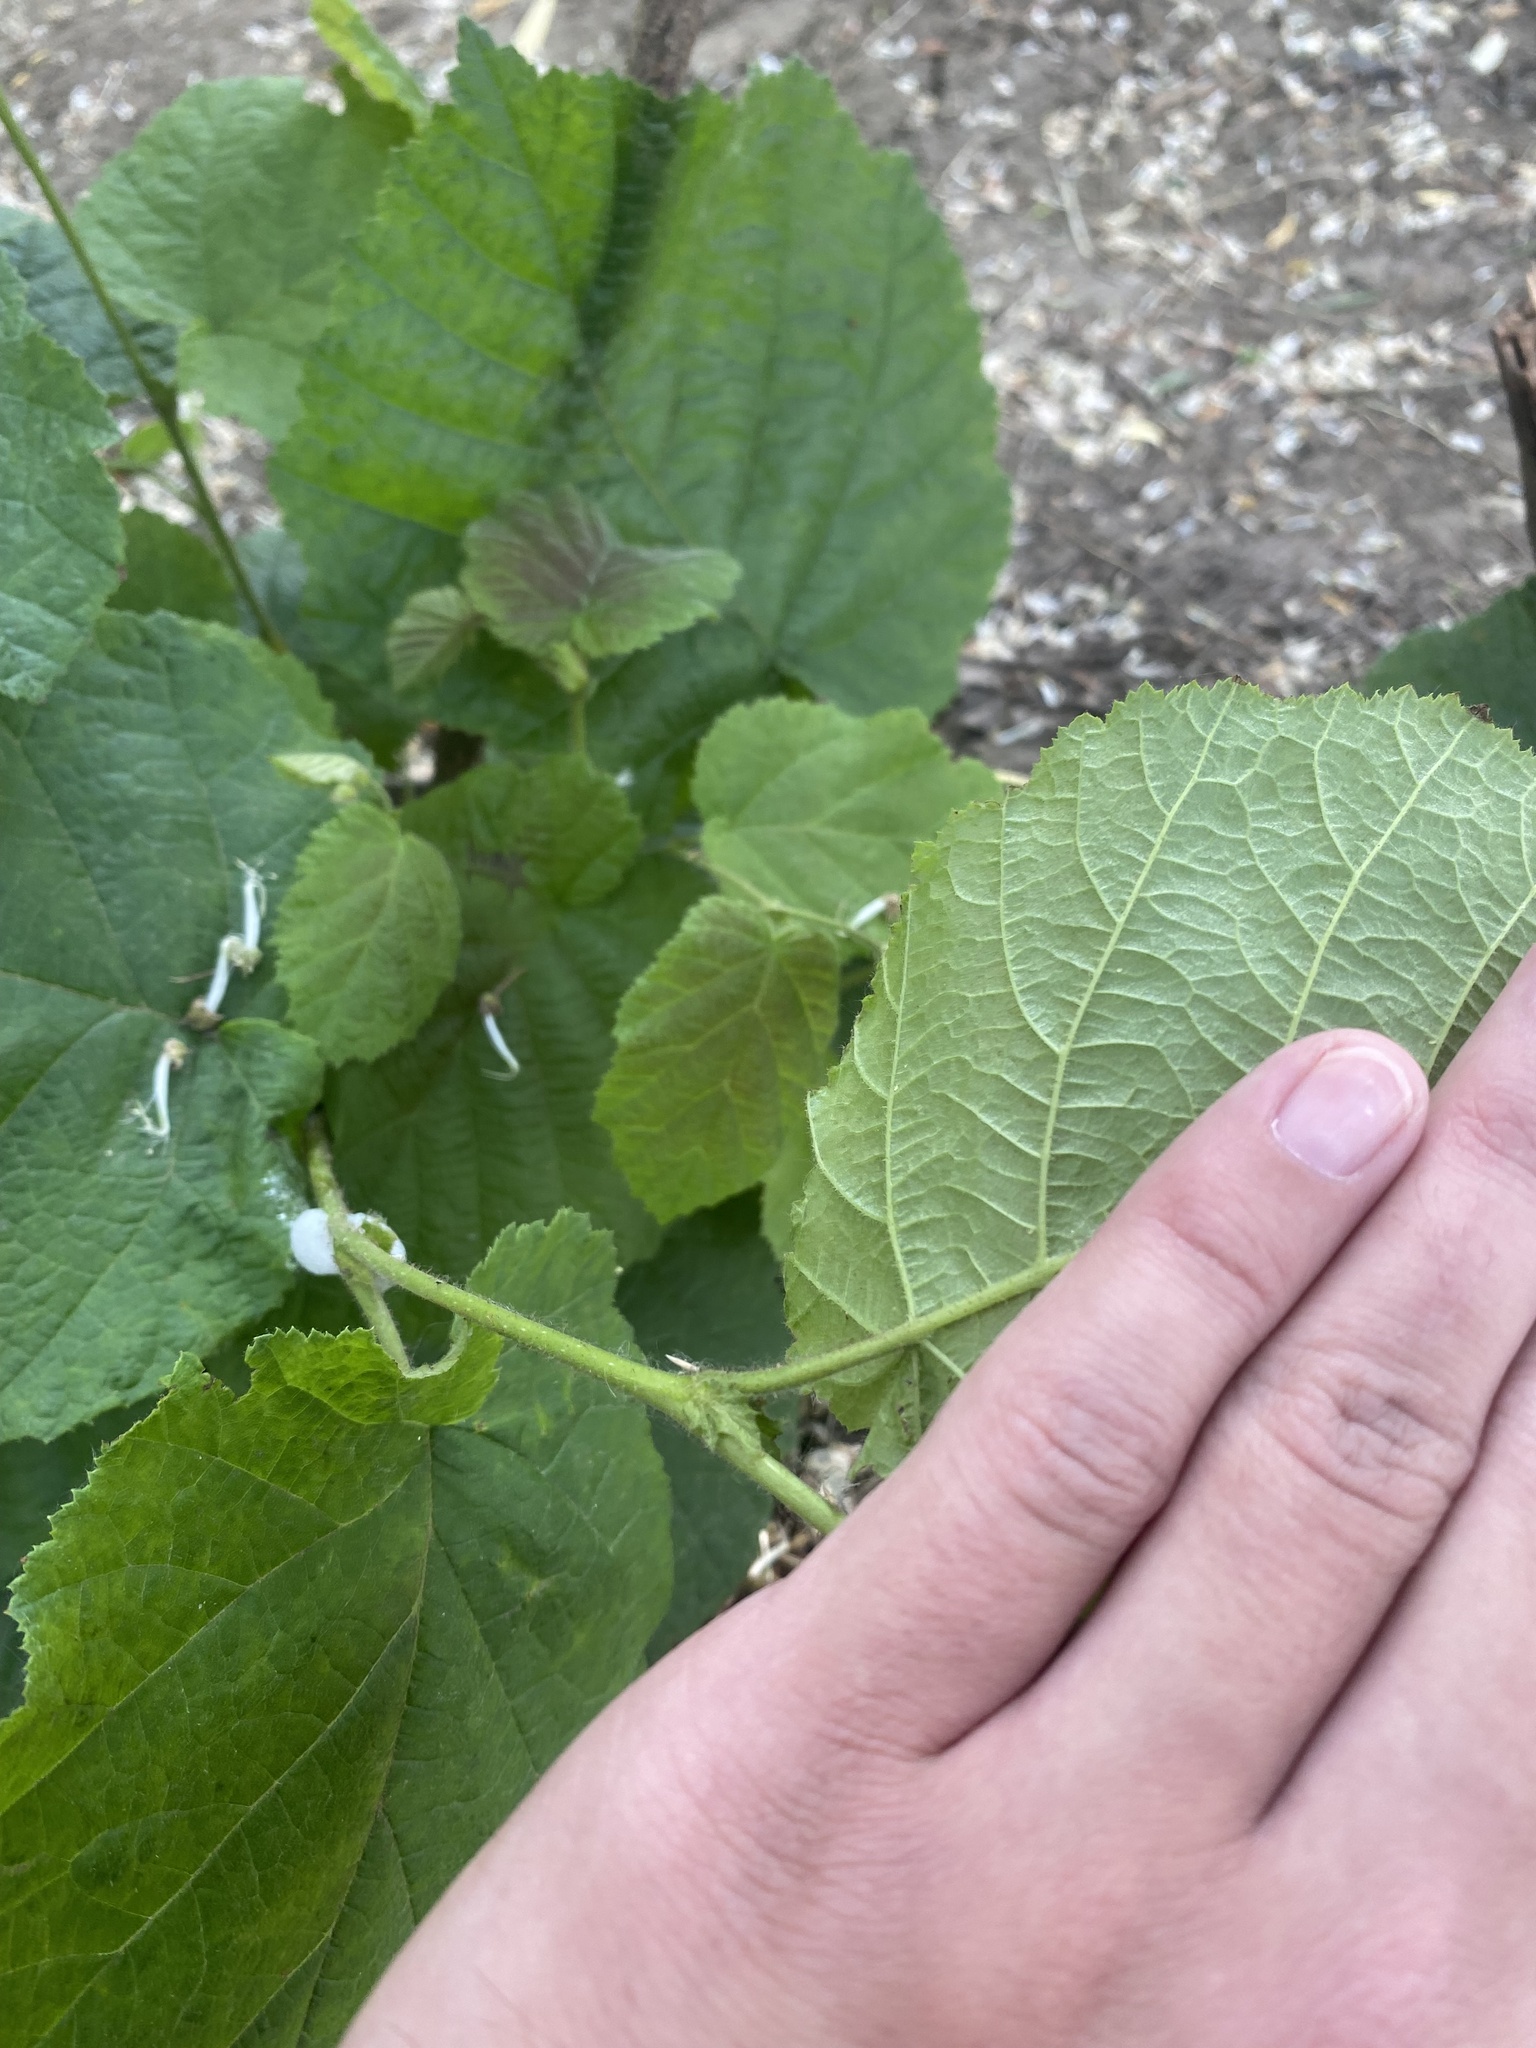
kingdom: Plantae
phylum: Tracheophyta
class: Magnoliopsida
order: Fagales
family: Betulaceae
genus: Corylus
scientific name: Corylus avellana
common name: European hazel
